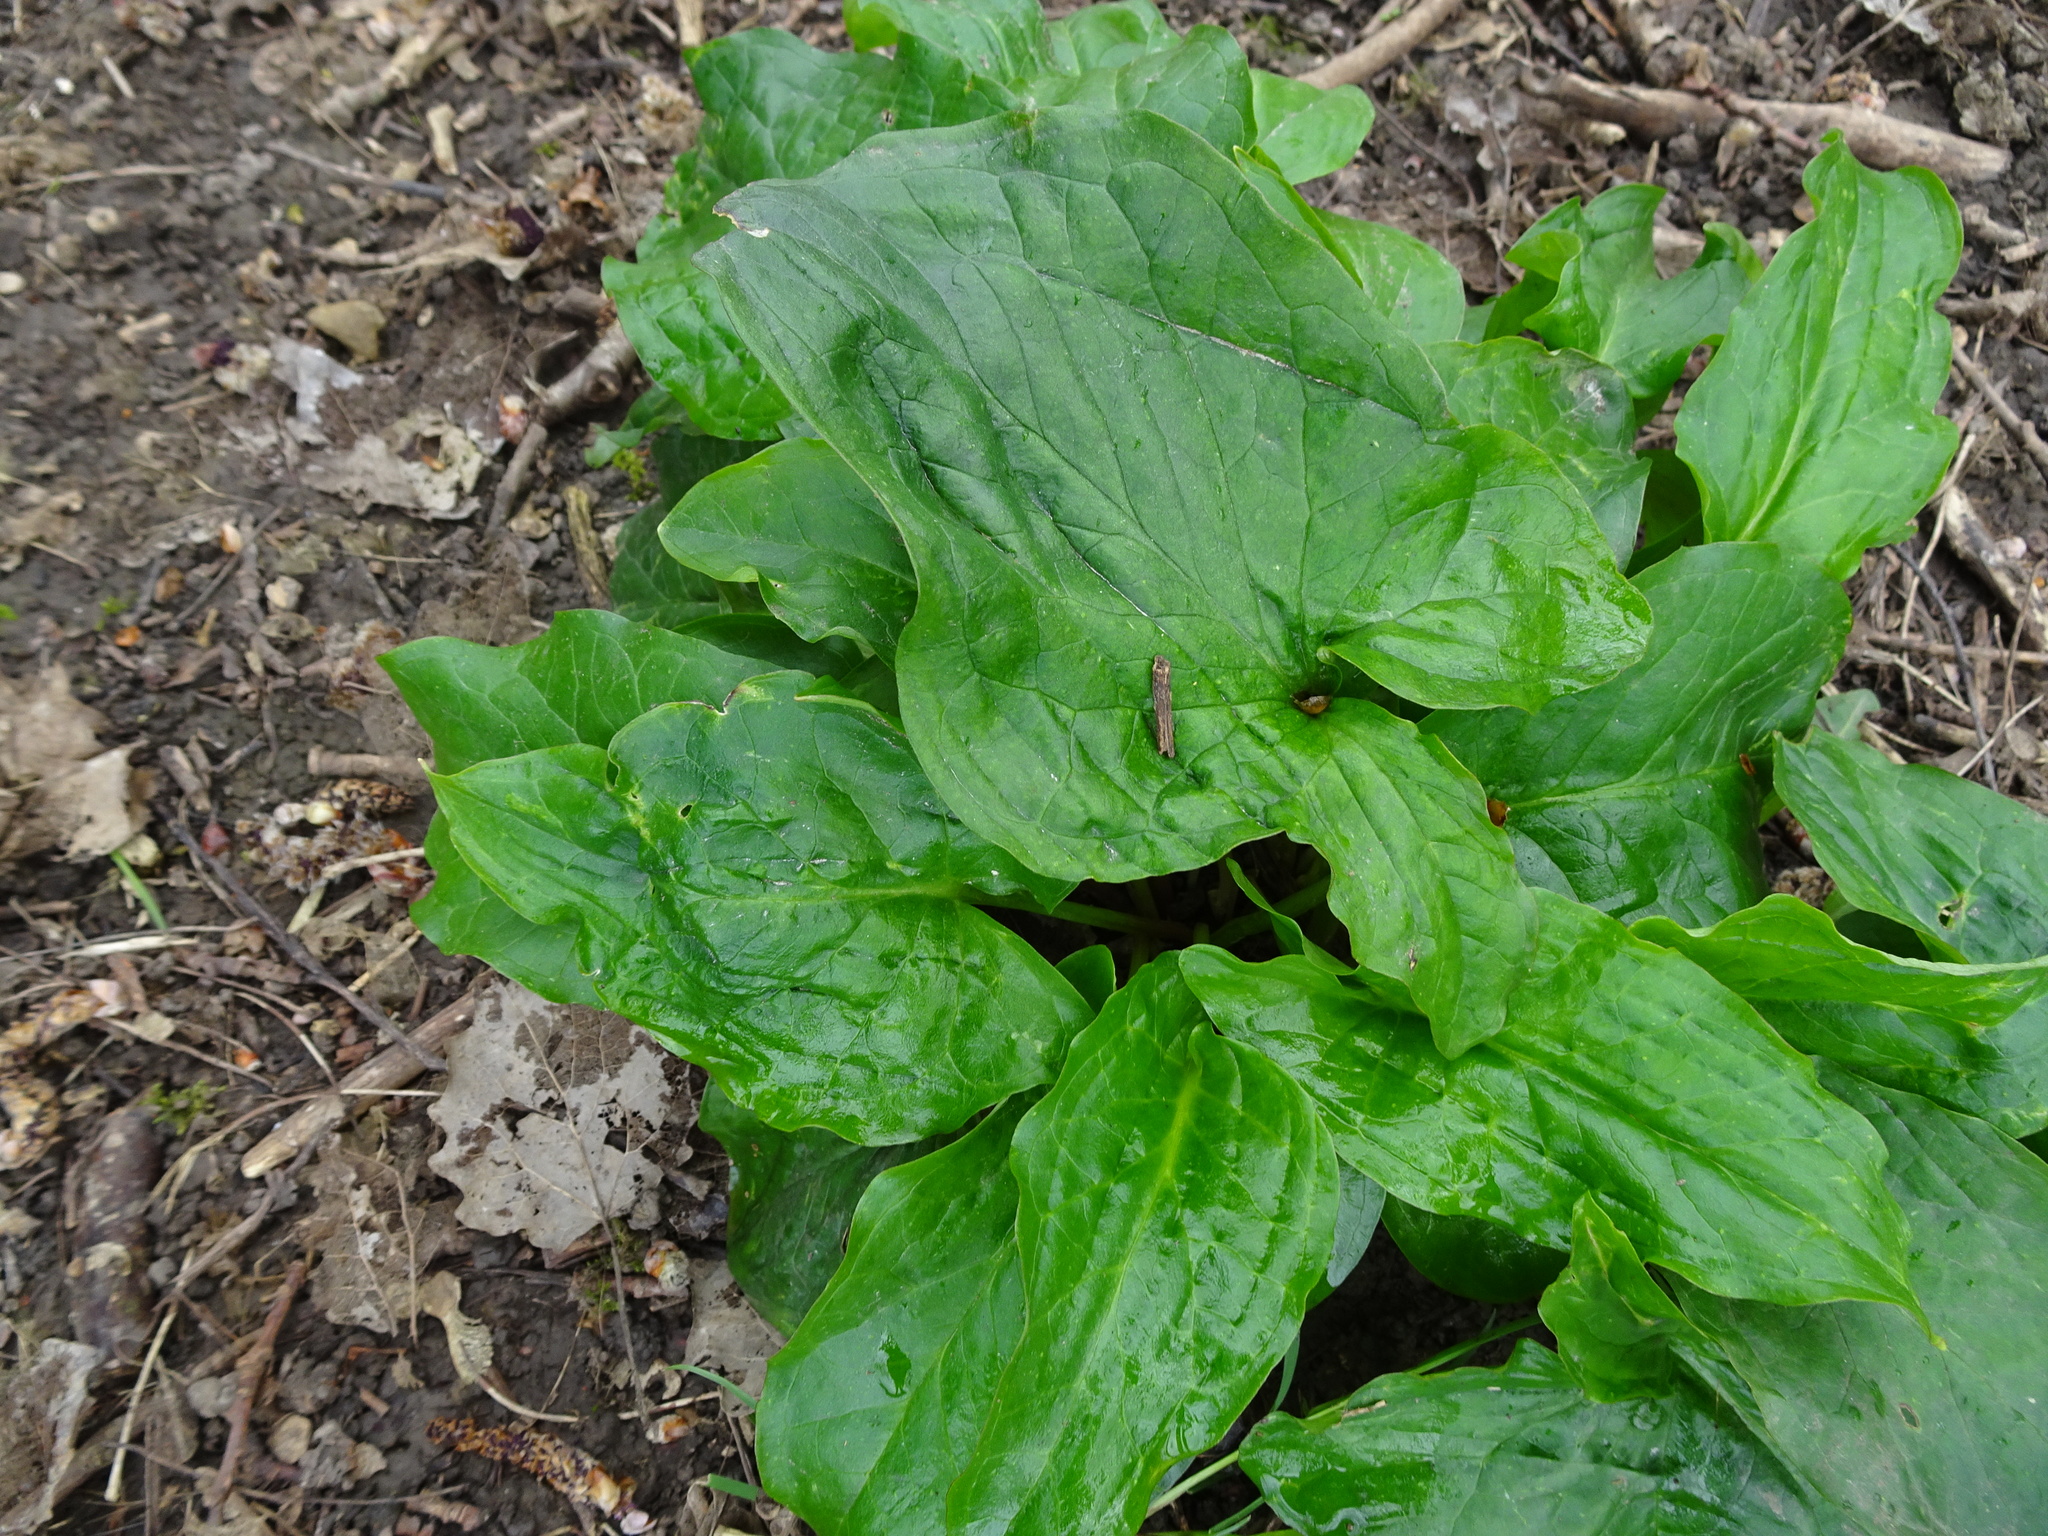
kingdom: Plantae
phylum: Tracheophyta
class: Liliopsida
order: Alismatales
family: Araceae
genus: Arum
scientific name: Arum maculatum
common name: Lords-and-ladies
